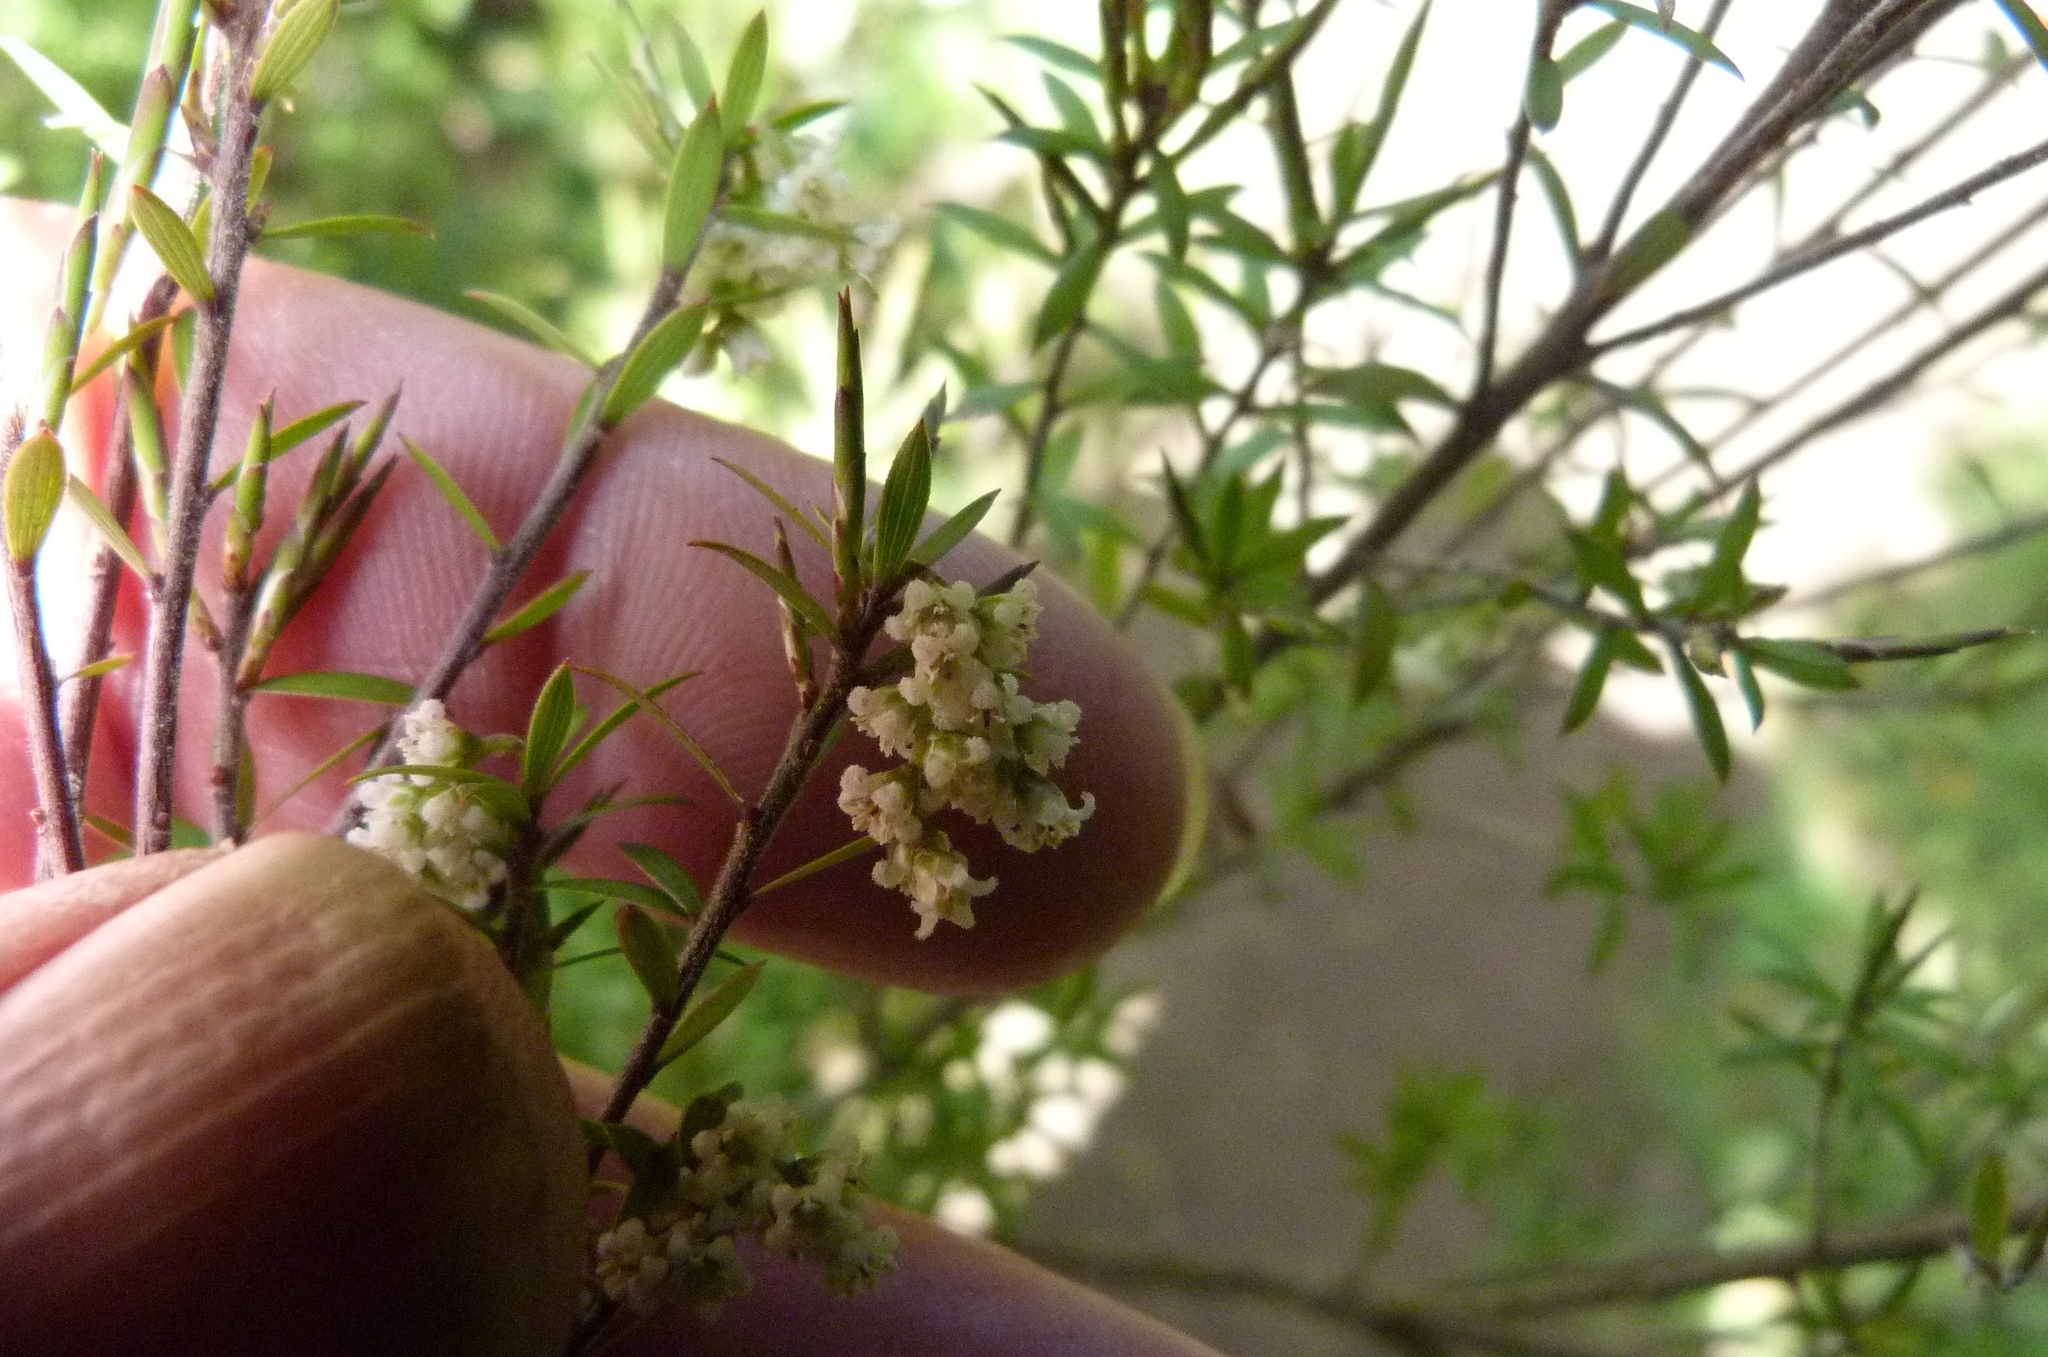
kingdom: Plantae
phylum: Tracheophyta
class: Magnoliopsida
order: Ericales
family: Ericaceae
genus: Leucopogon
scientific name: Leucopogon fasciculatus
